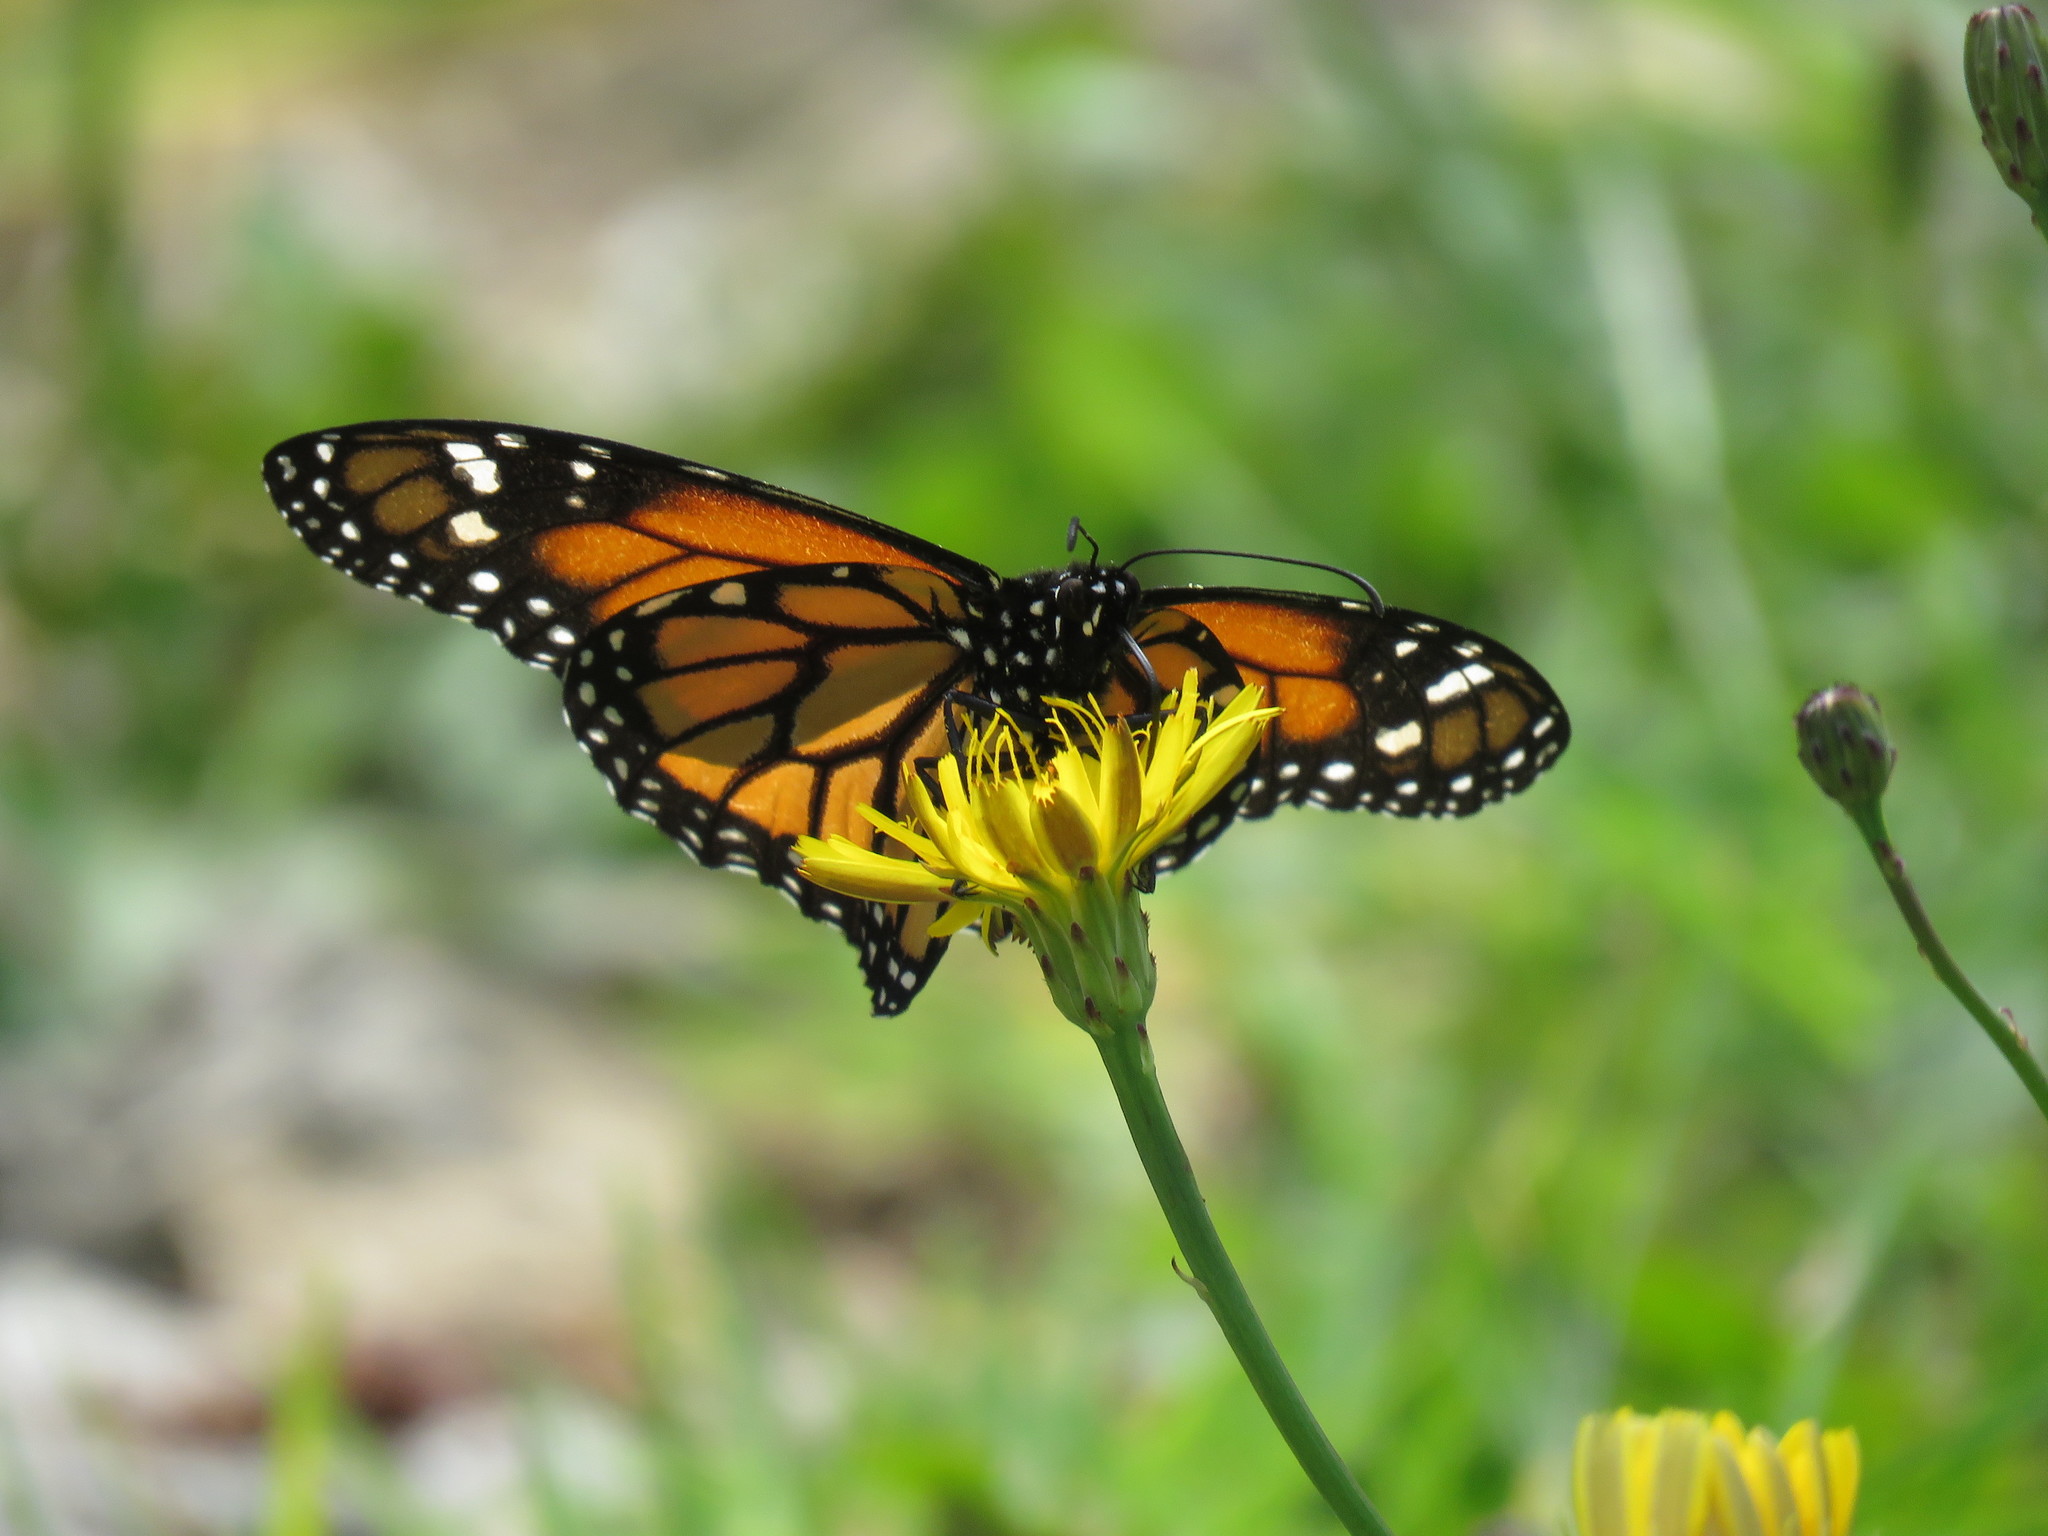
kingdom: Animalia
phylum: Arthropoda
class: Insecta
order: Lepidoptera
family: Nymphalidae
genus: Danaus
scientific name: Danaus plexippus
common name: Monarch
